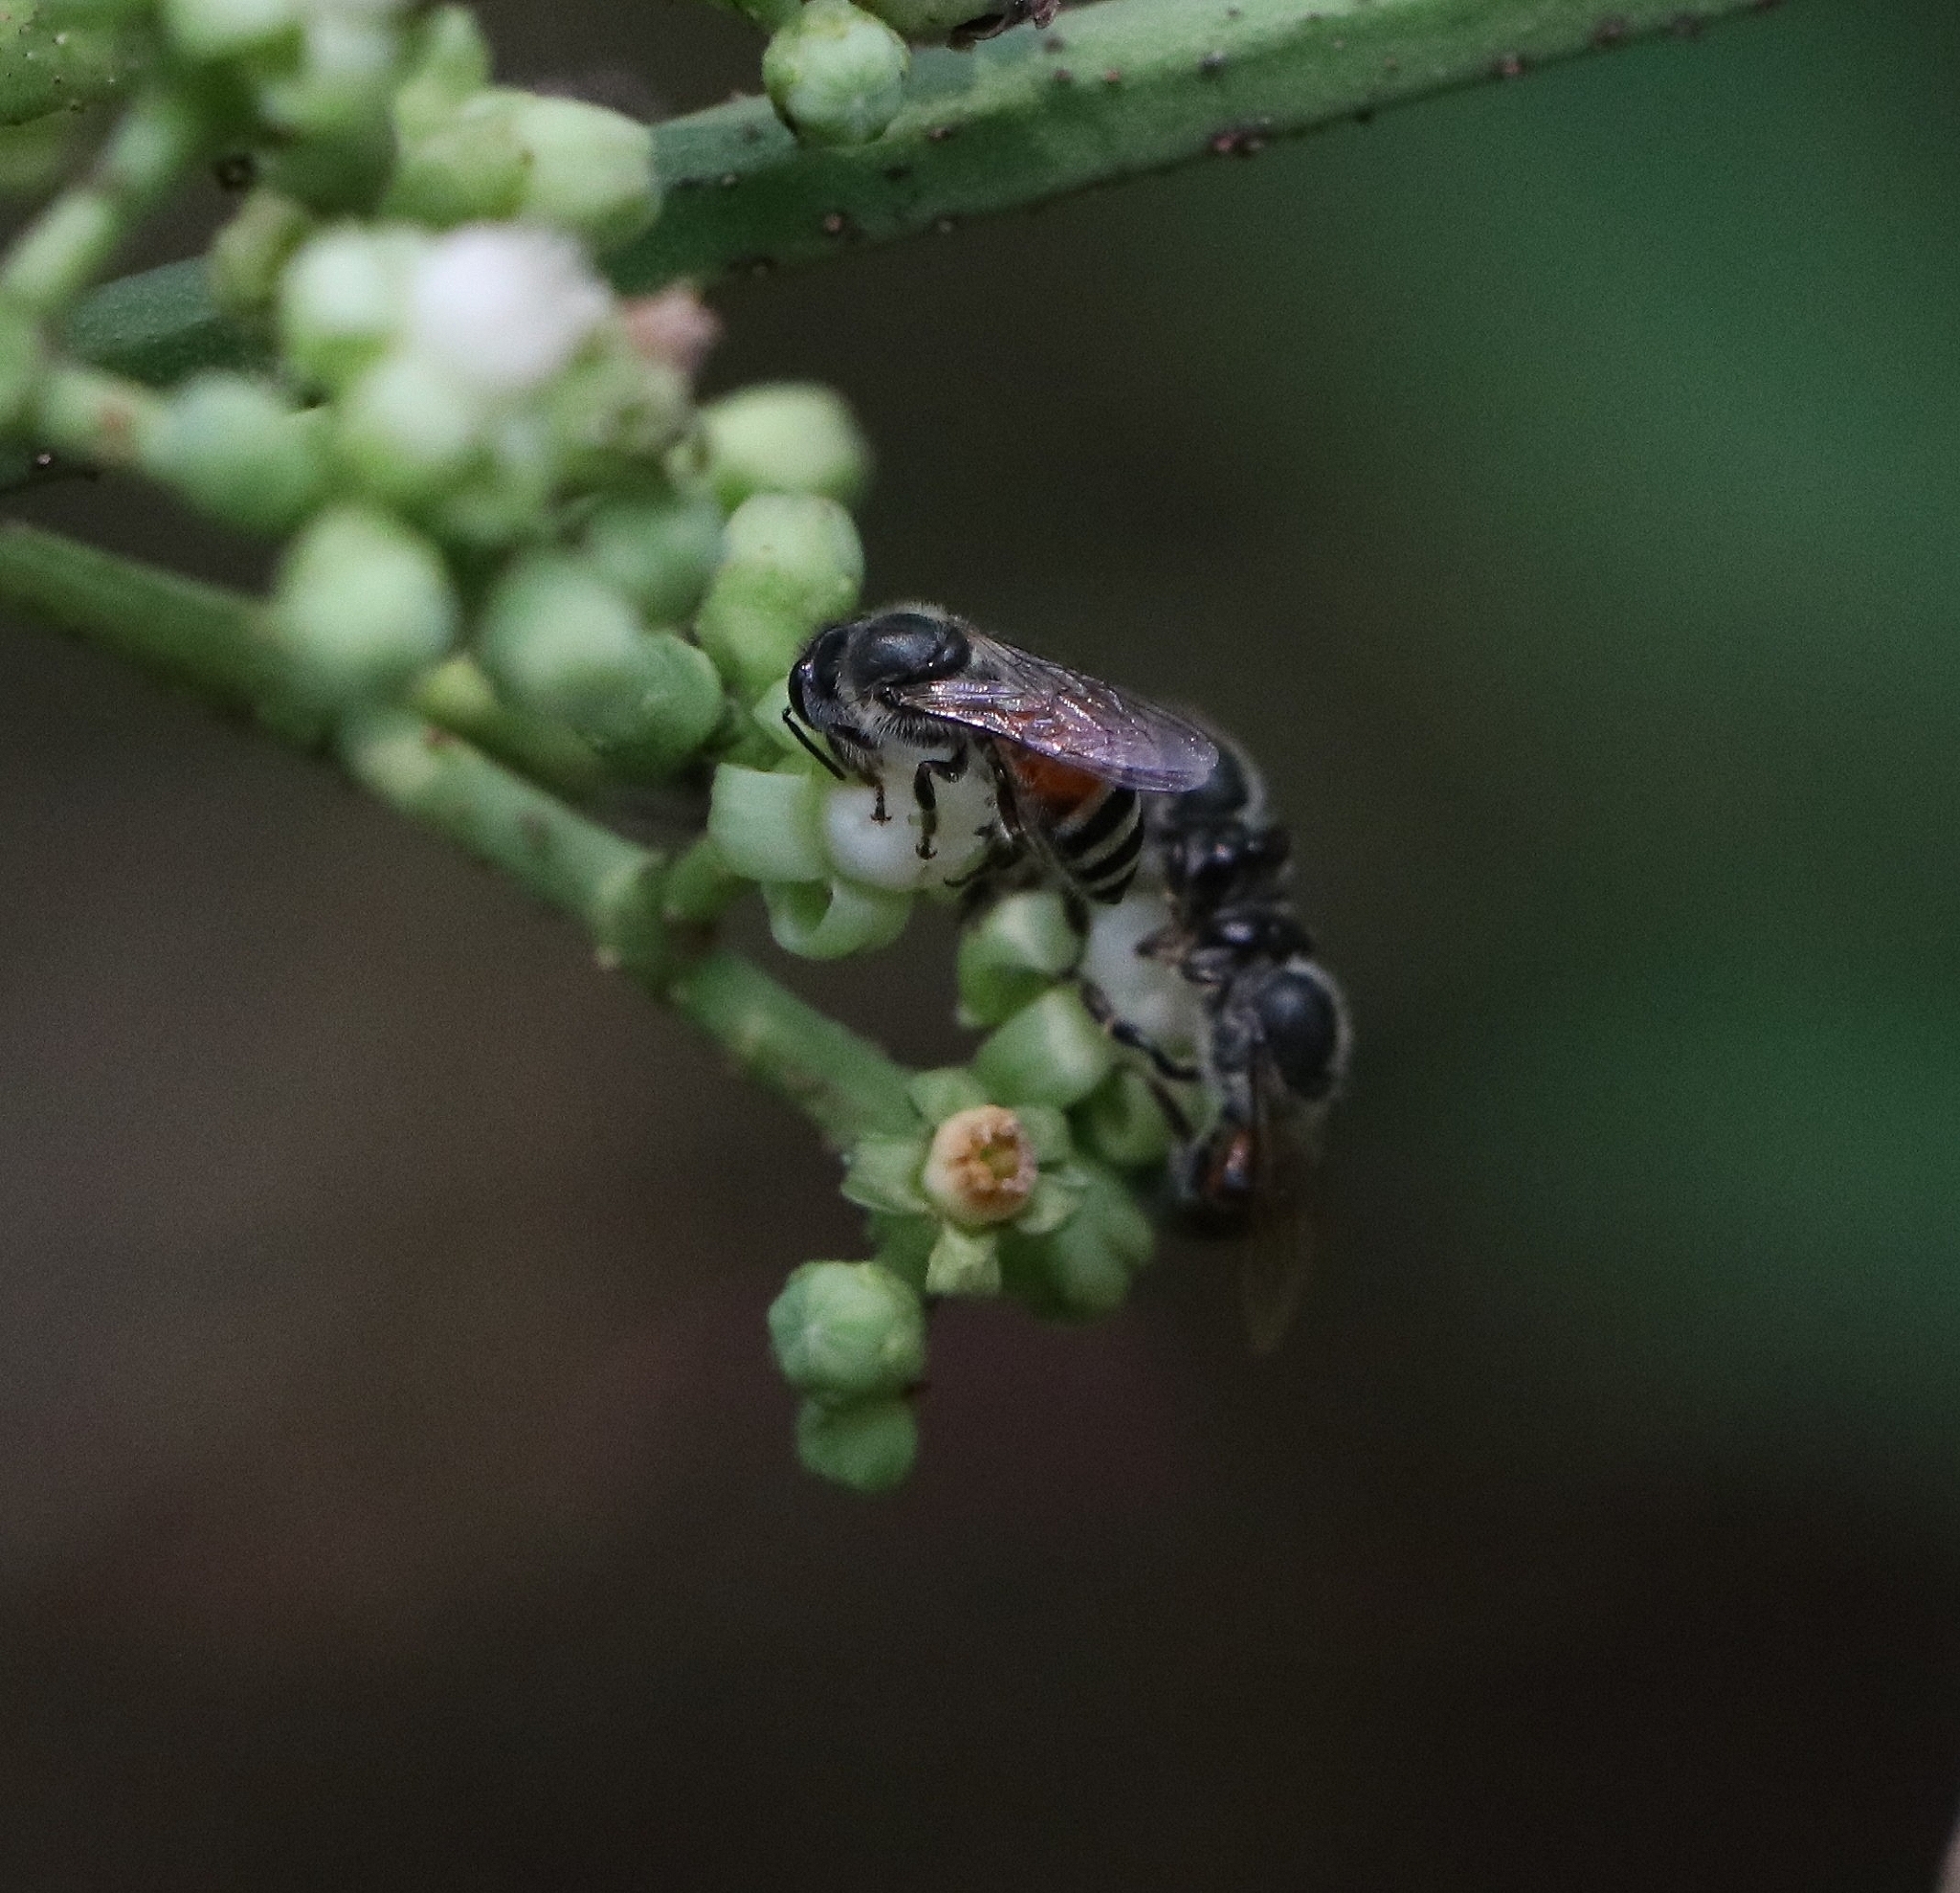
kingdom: Animalia
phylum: Arthropoda
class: Insecta
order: Hymenoptera
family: Apidae
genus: Apis
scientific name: Apis florea
